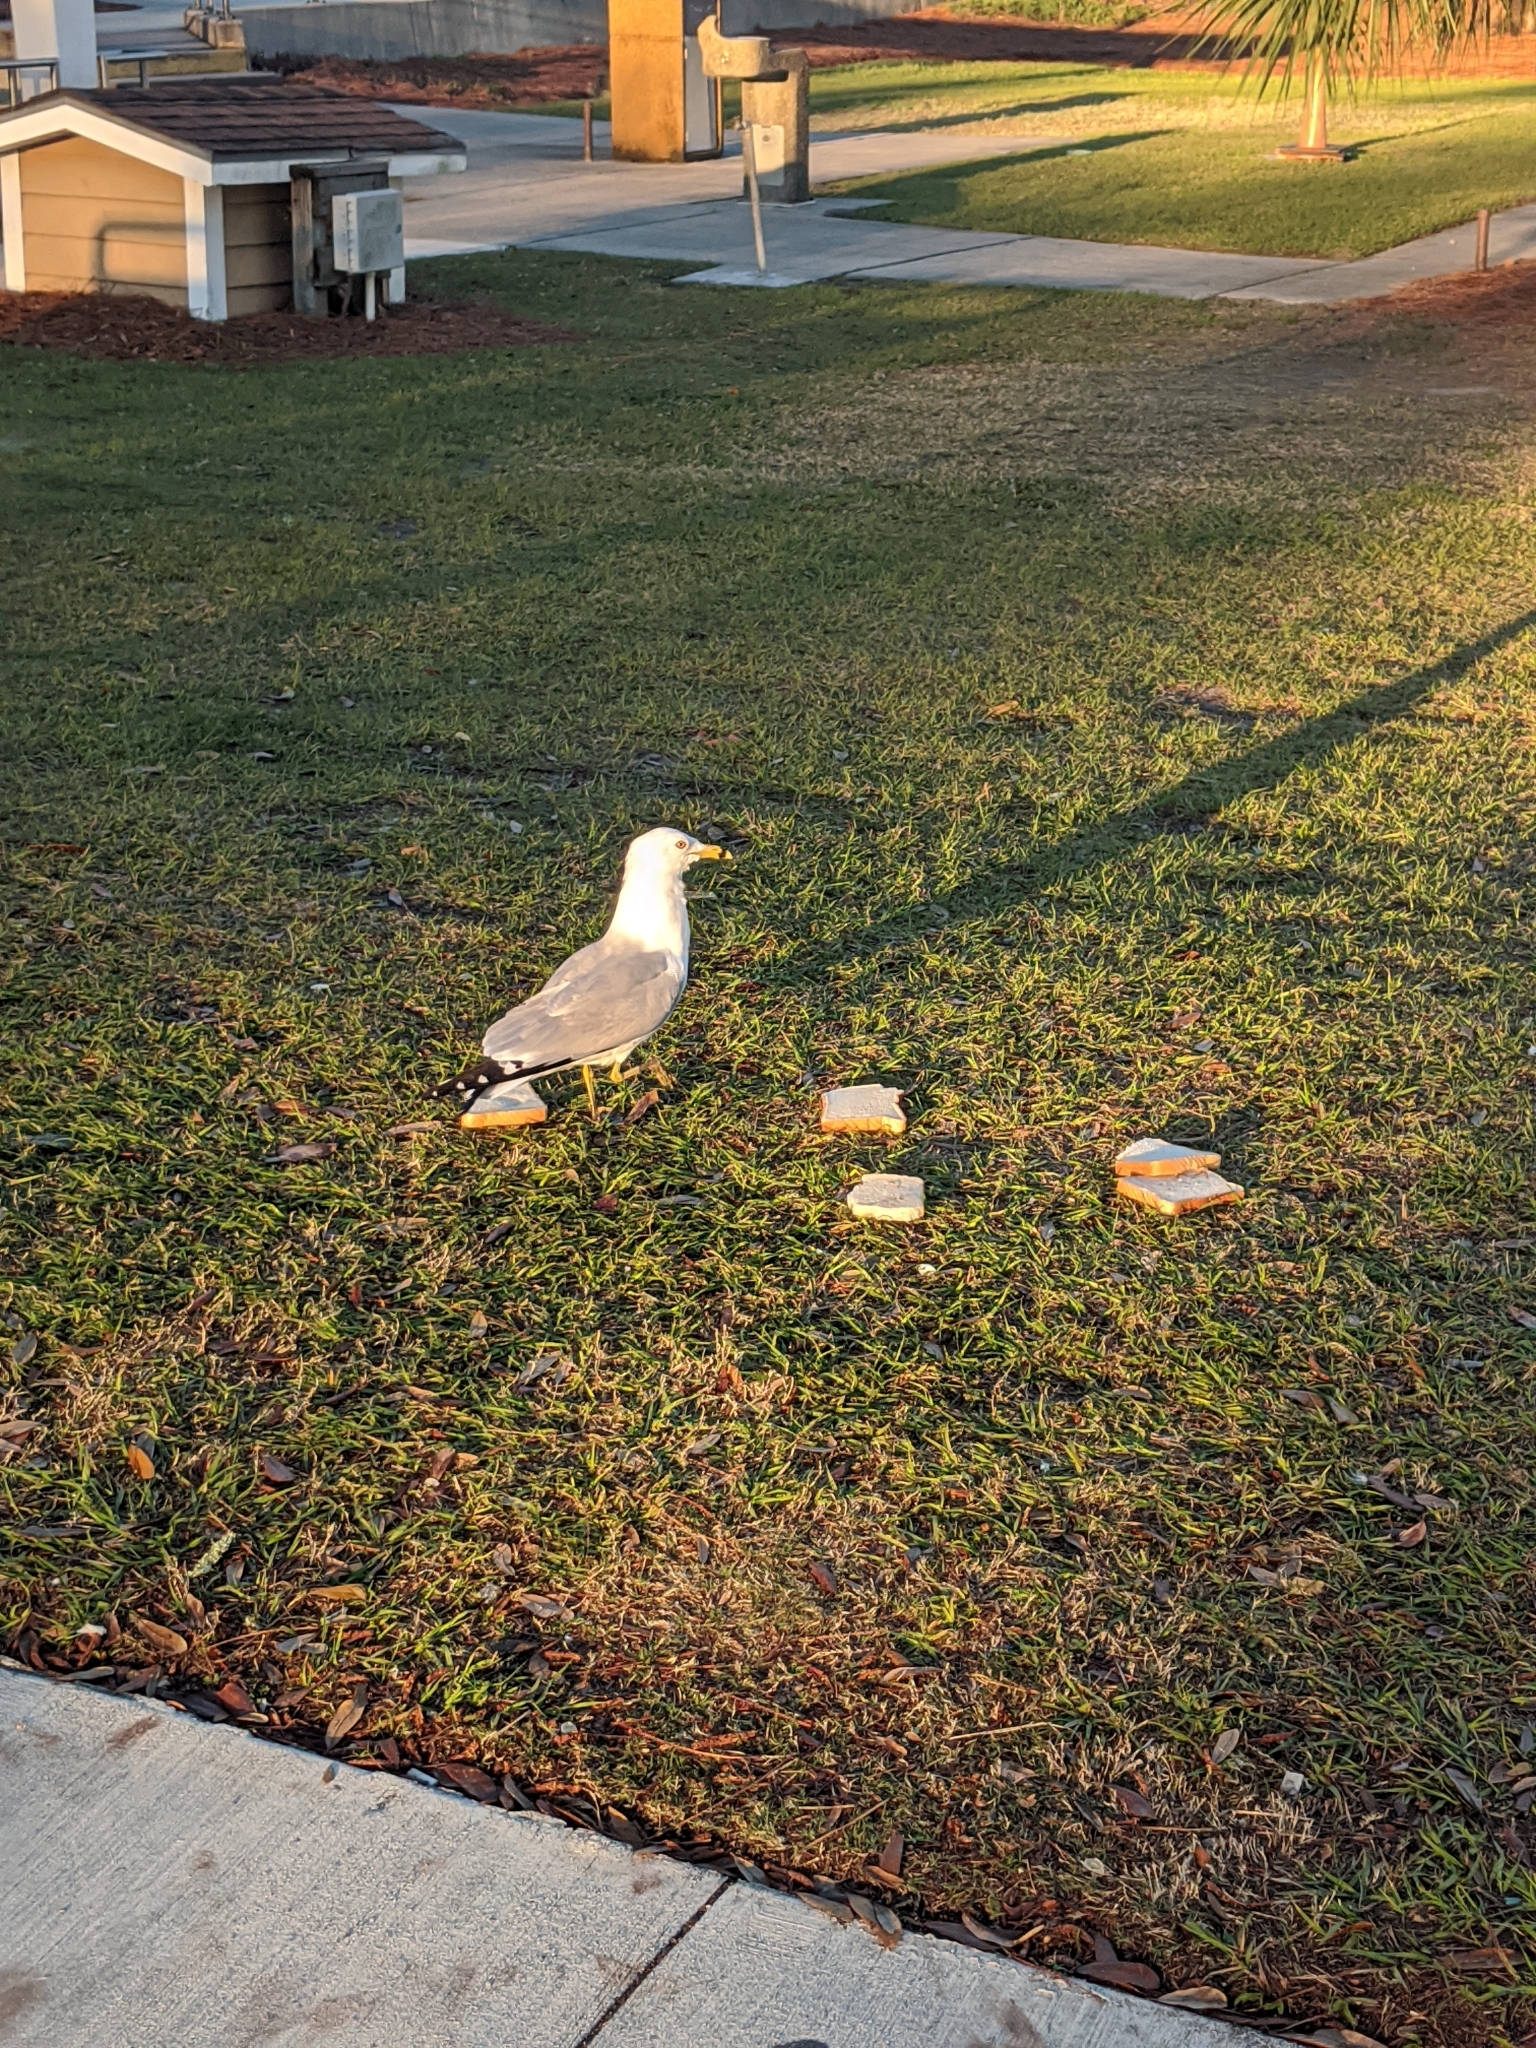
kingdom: Animalia
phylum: Chordata
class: Aves
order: Charadriiformes
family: Laridae
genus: Larus
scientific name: Larus delawarensis
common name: Ring-billed gull
